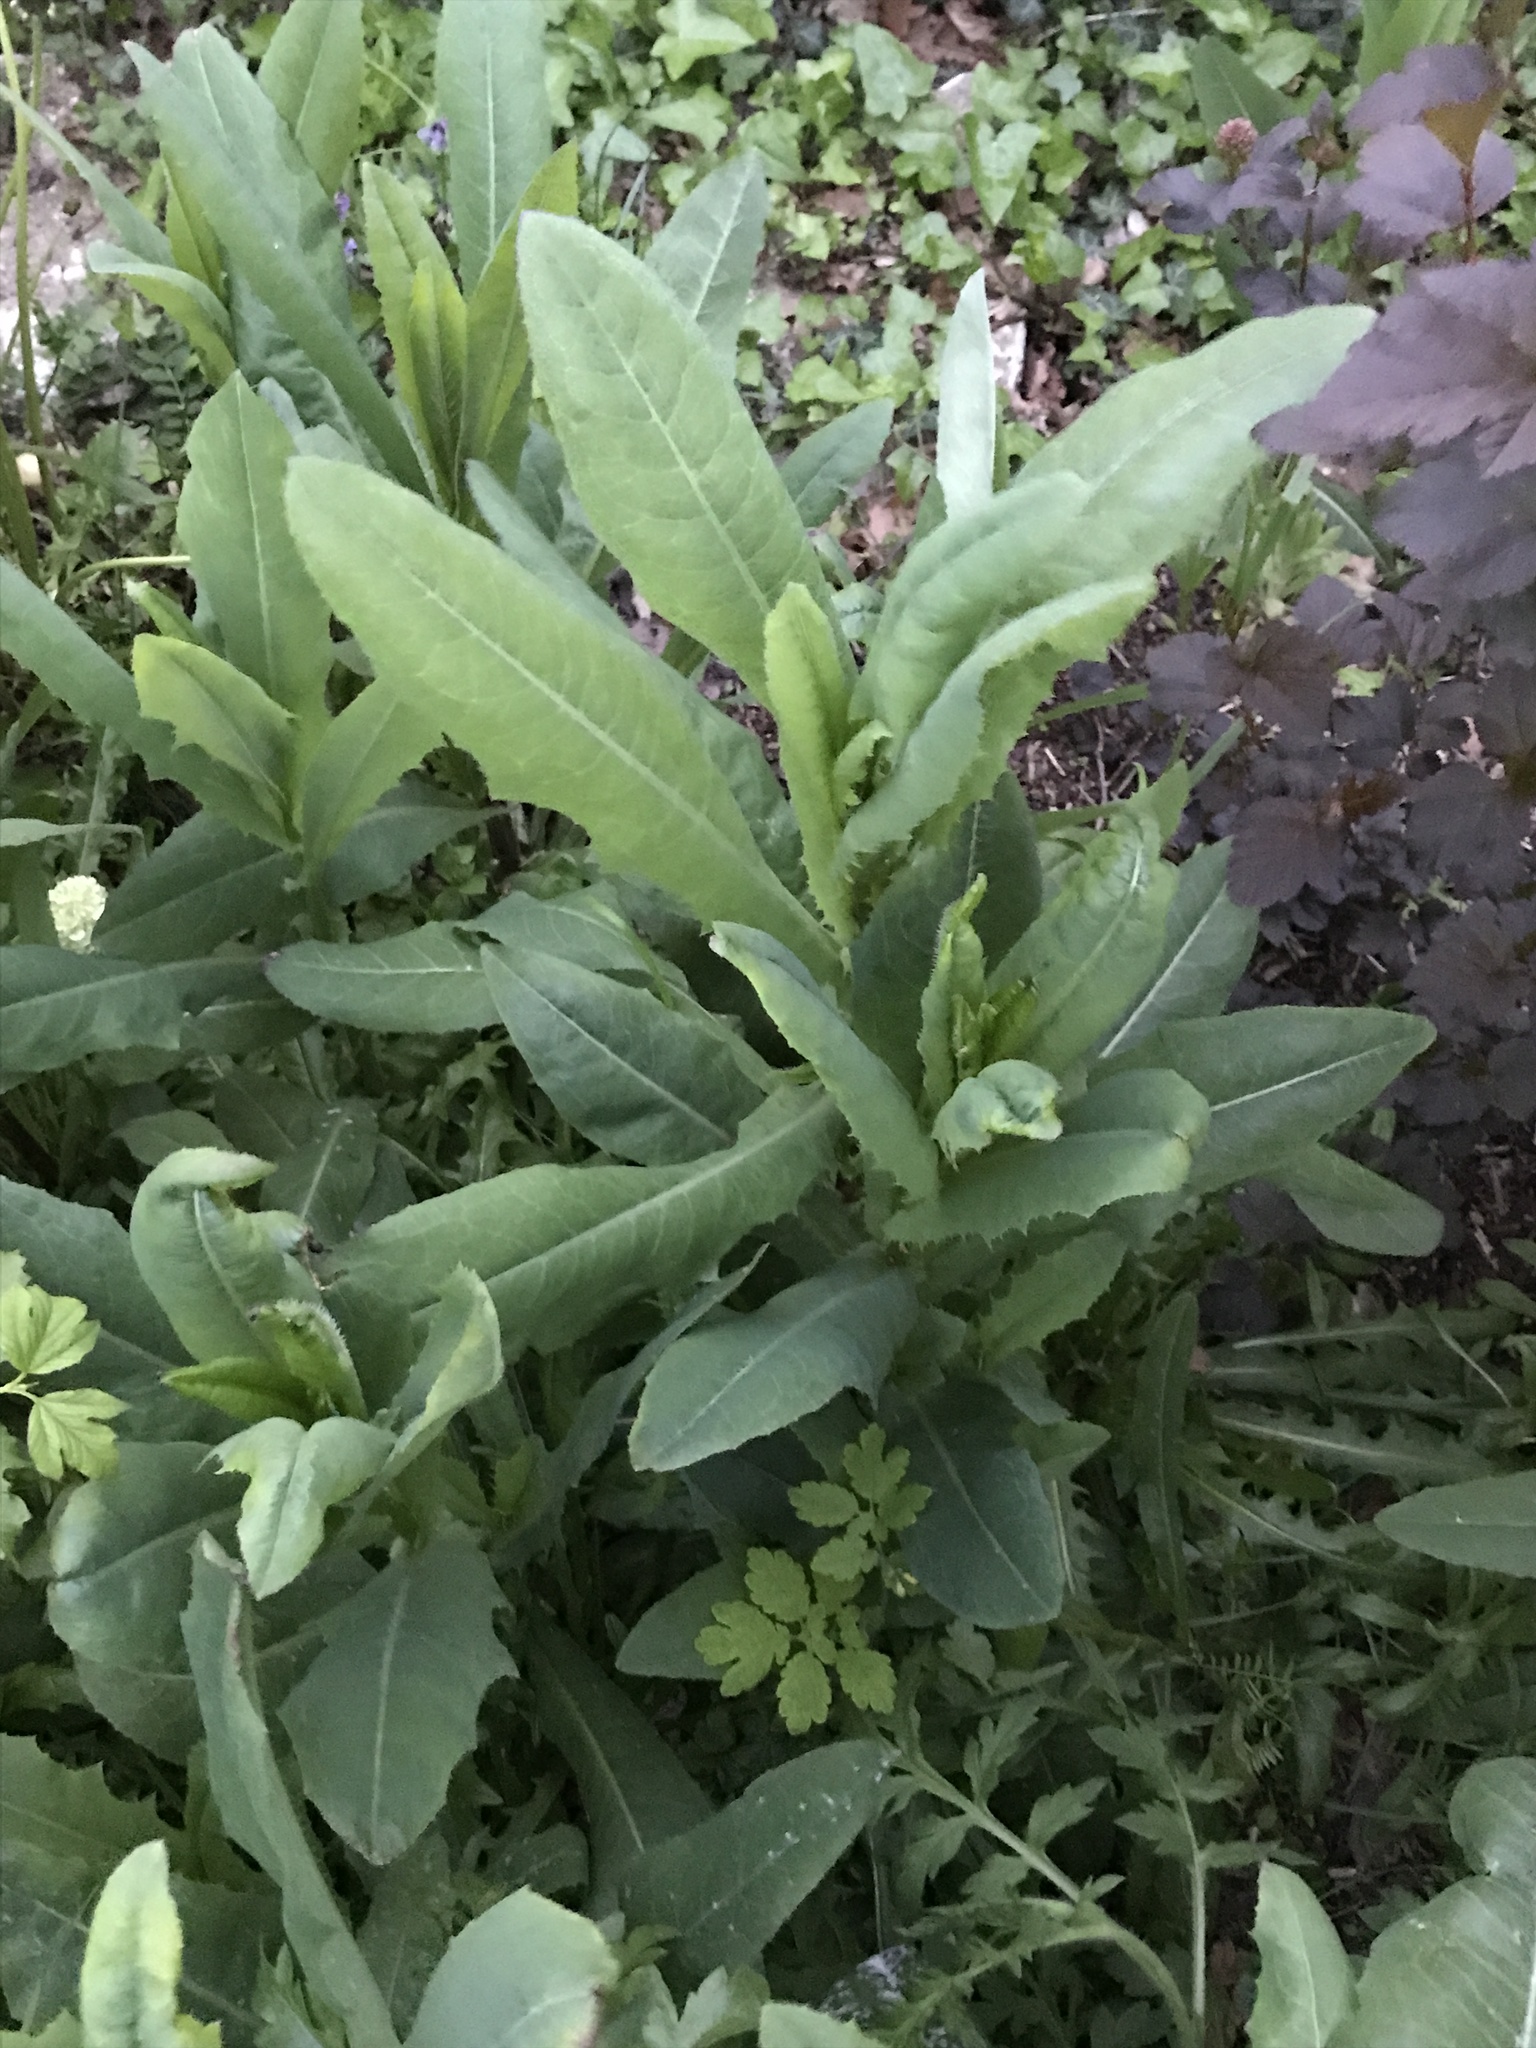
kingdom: Plantae
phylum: Tracheophyta
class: Magnoliopsida
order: Asterales
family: Asteraceae
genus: Lactuca
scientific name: Lactuca serriola
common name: Prickly lettuce
